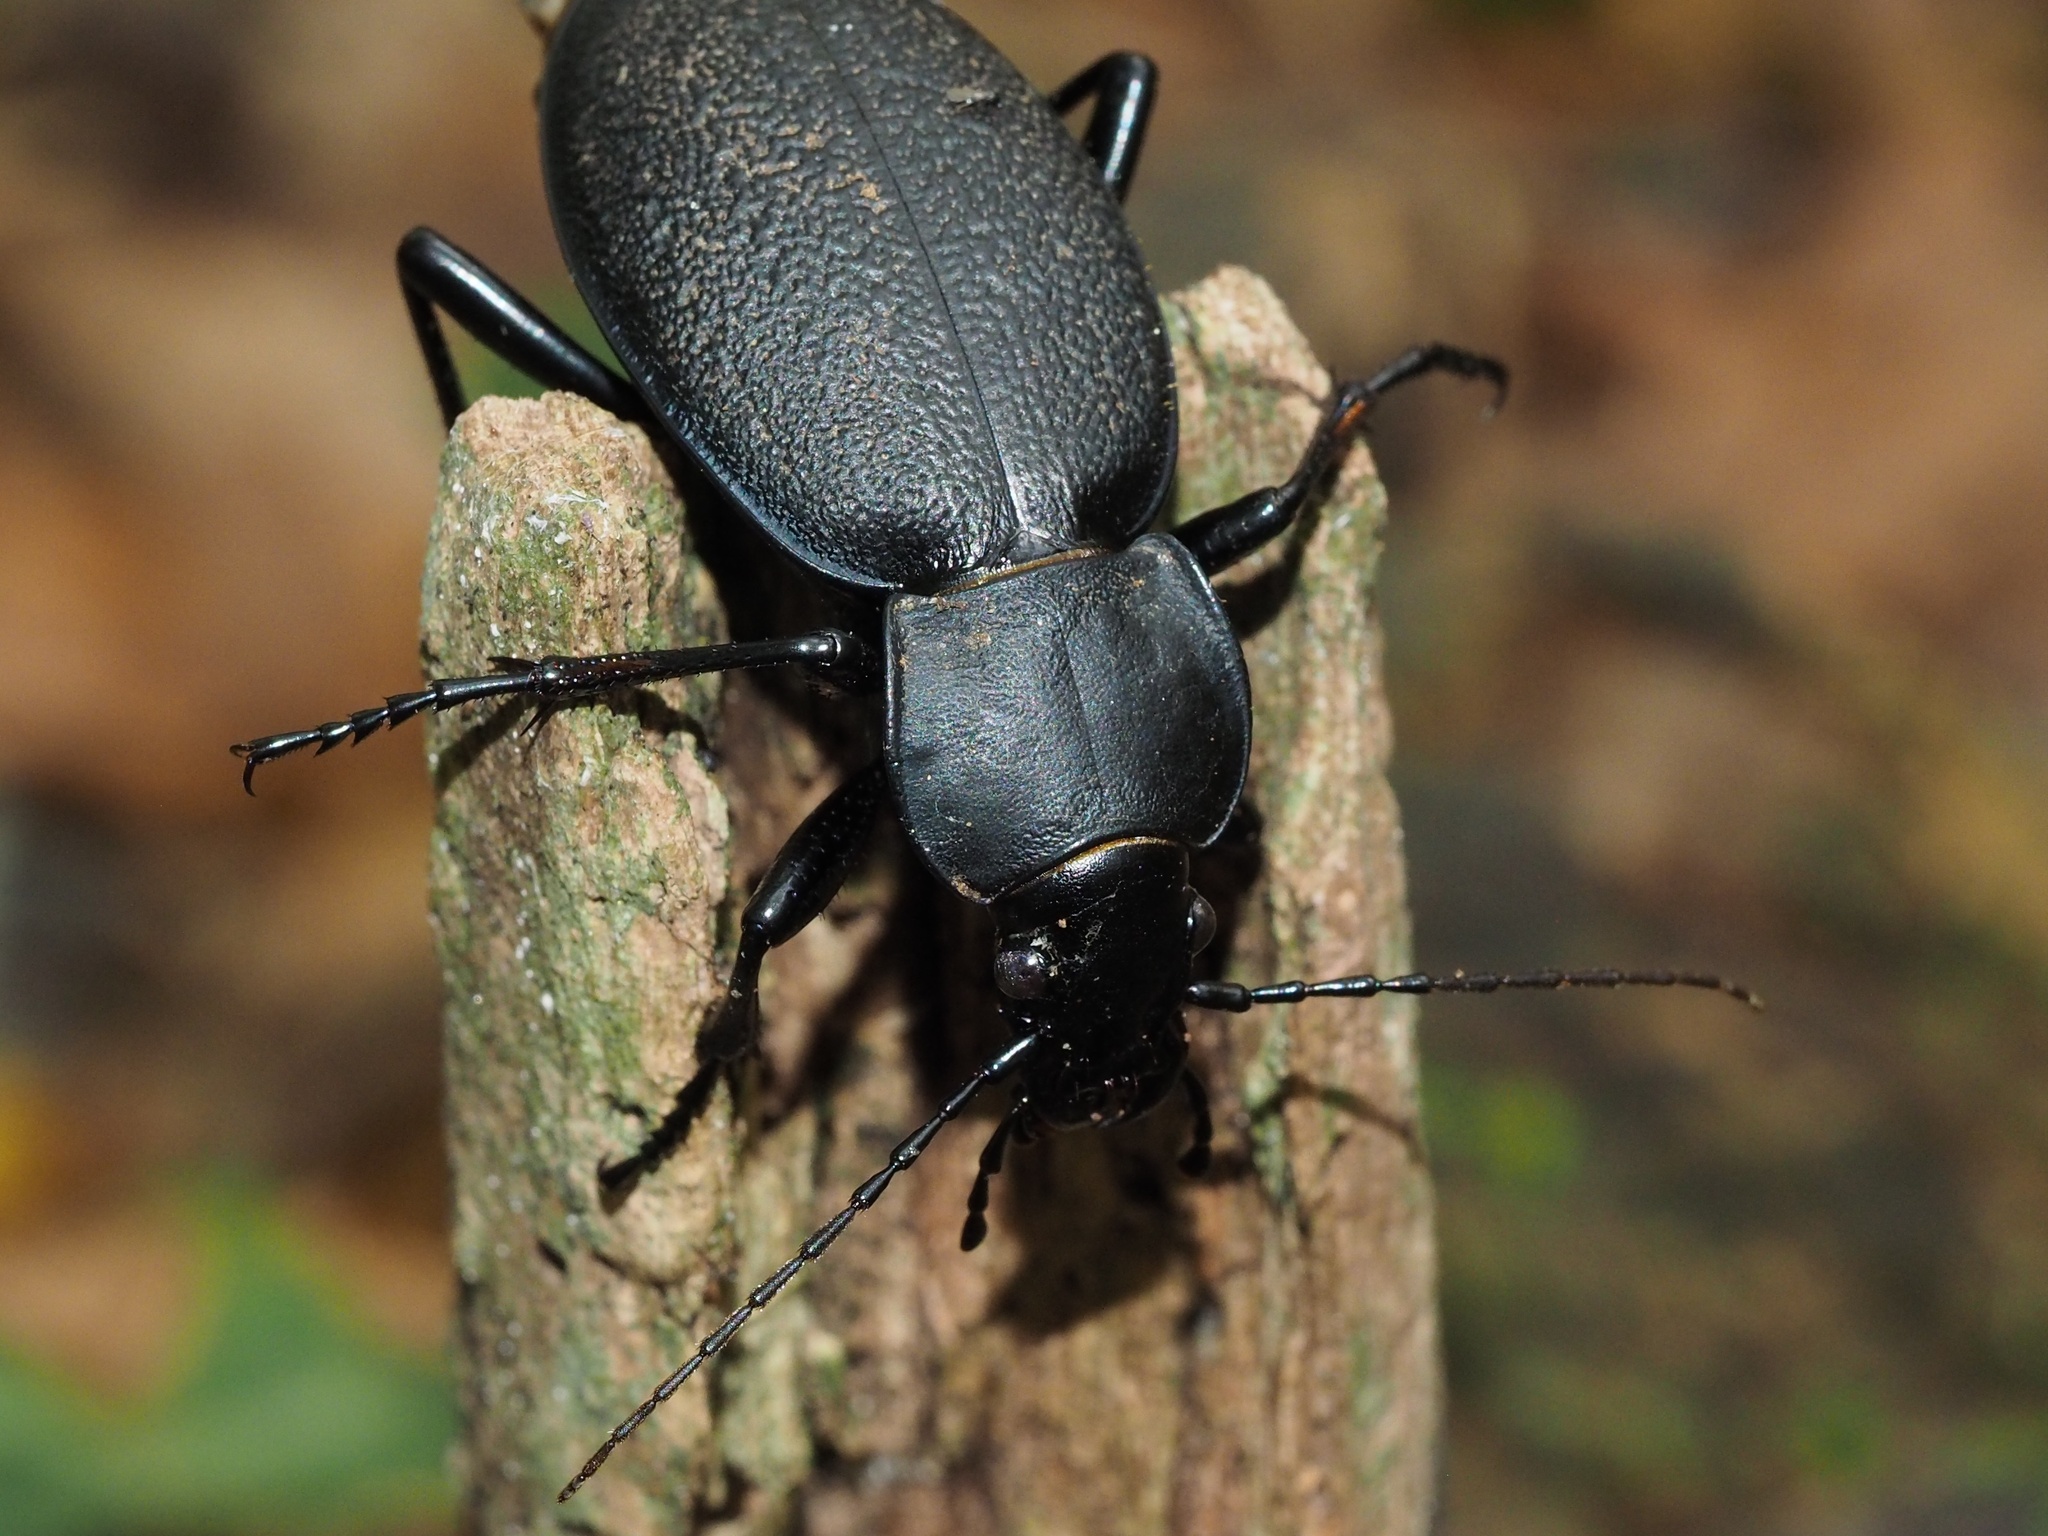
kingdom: Animalia
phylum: Arthropoda
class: Insecta
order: Coleoptera
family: Carabidae
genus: Carabus
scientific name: Carabus coriaceus
